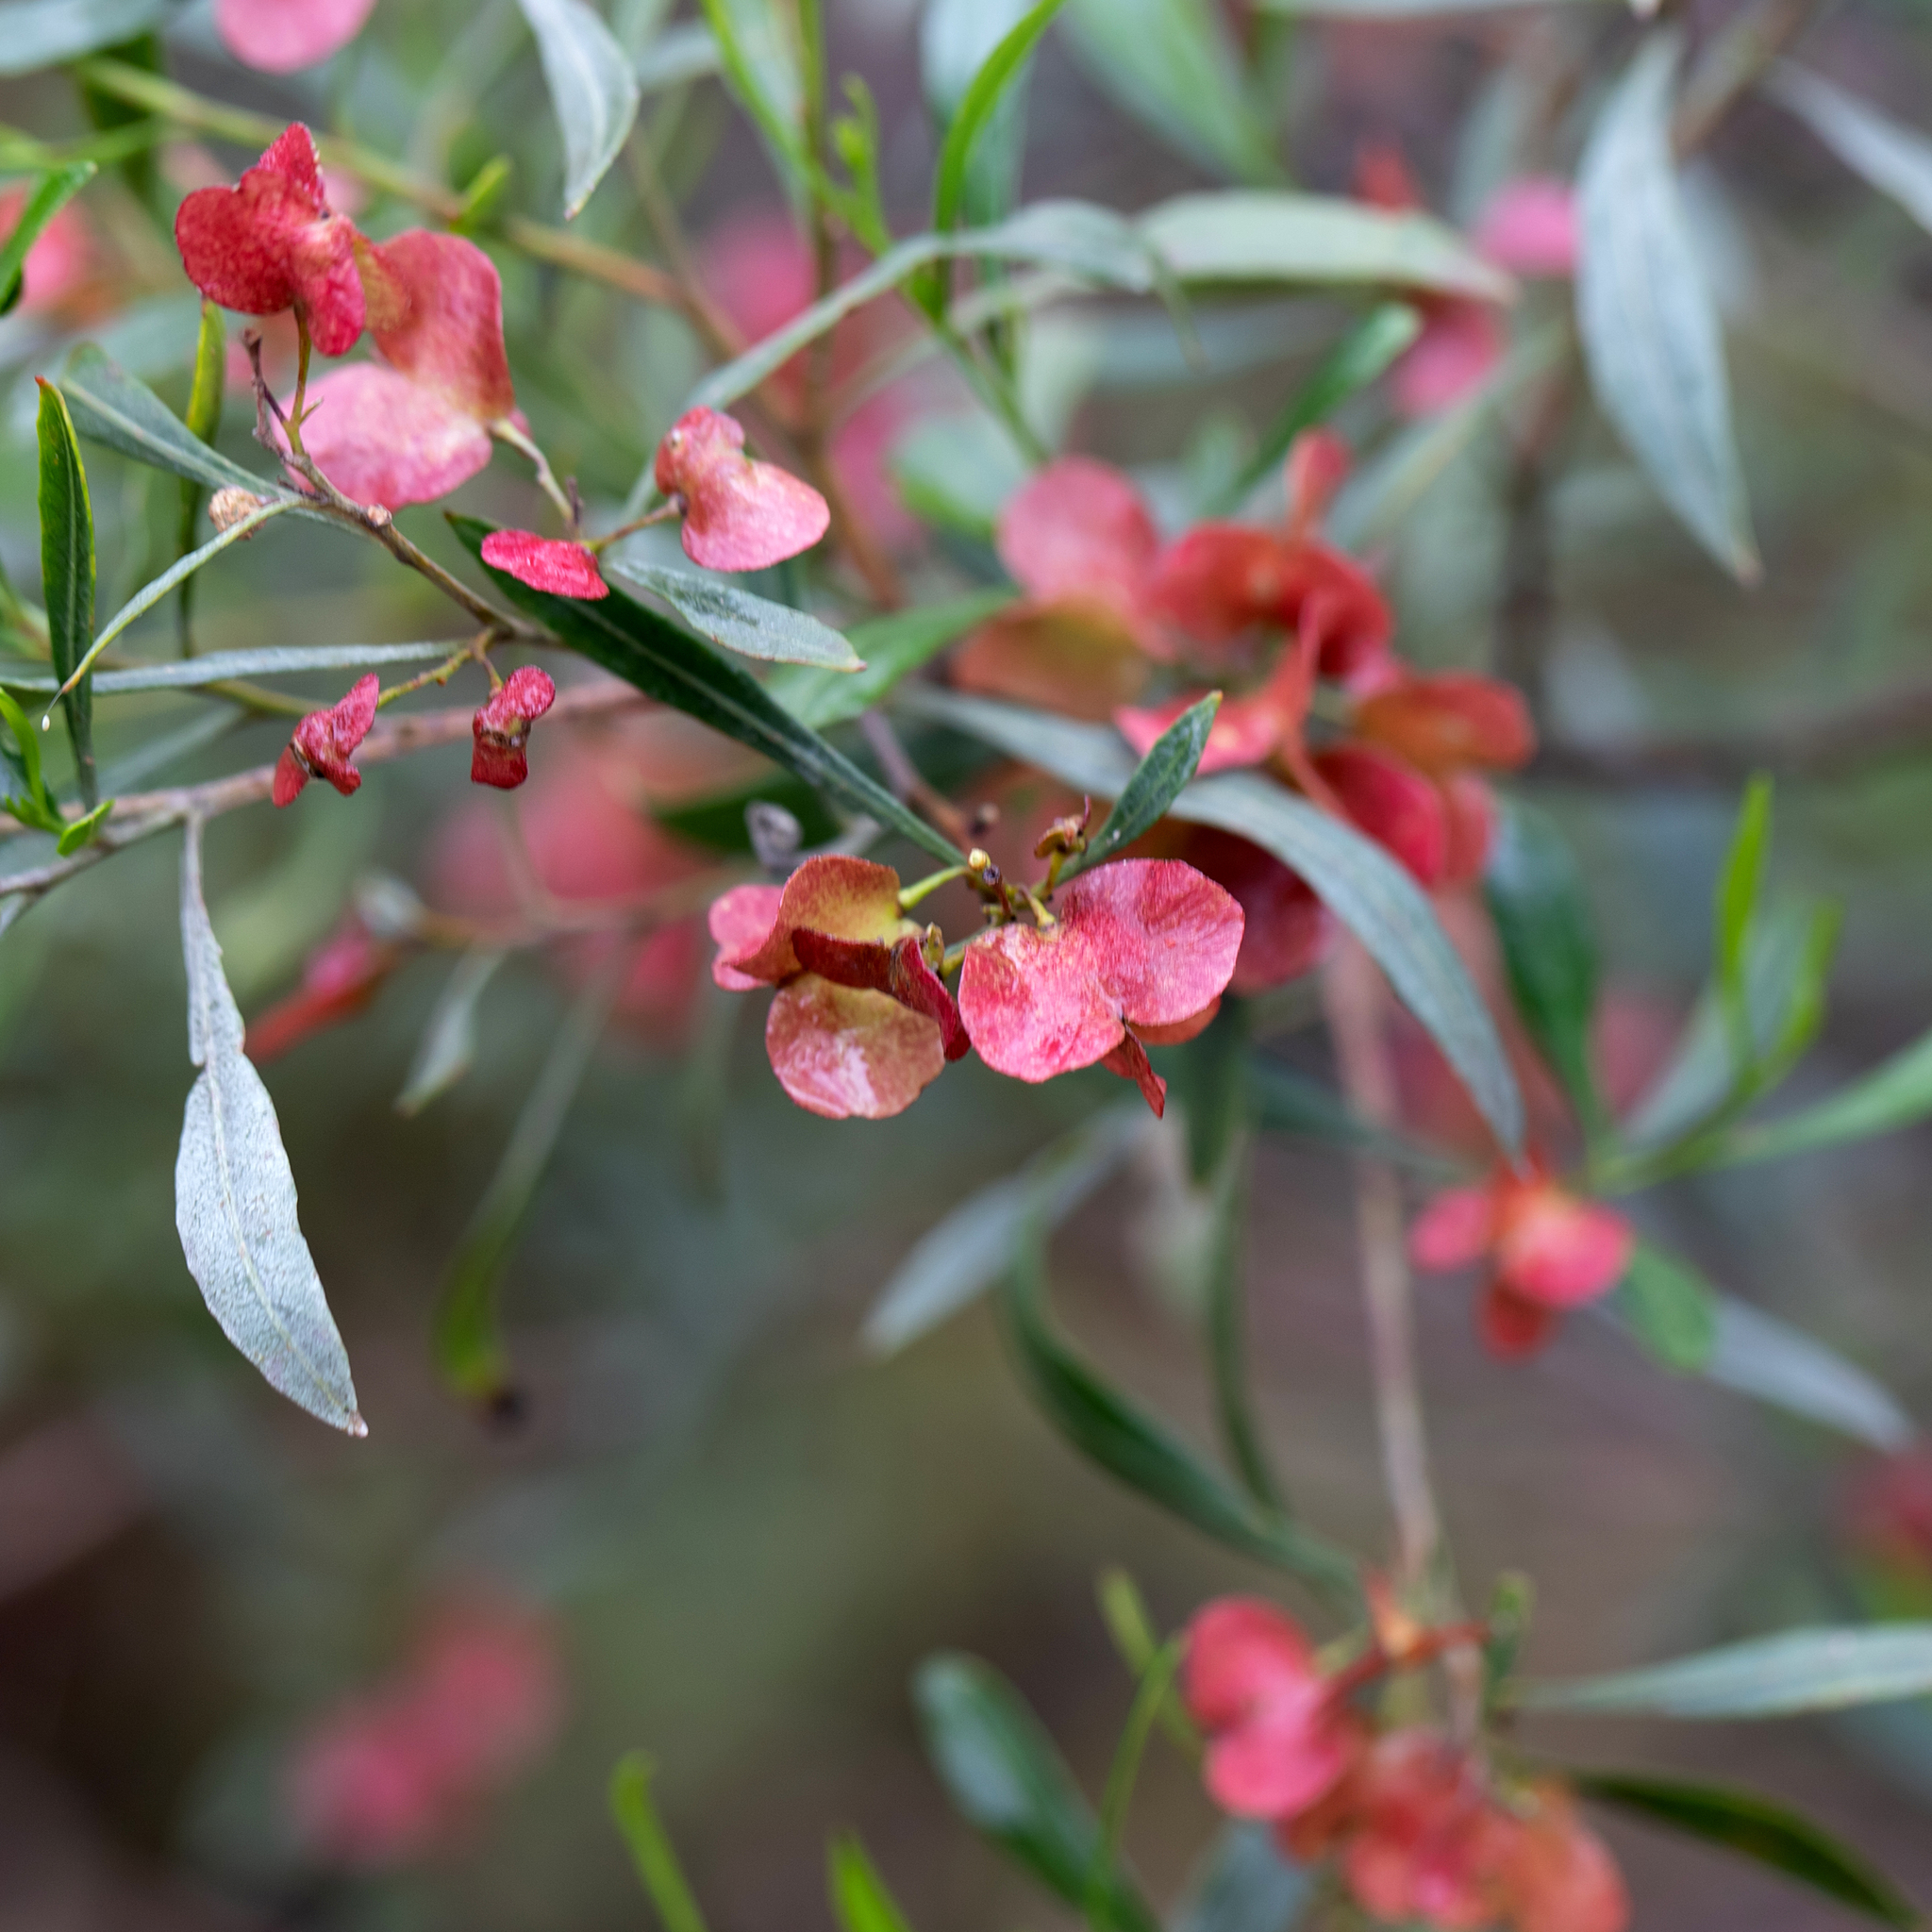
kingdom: Plantae
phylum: Tracheophyta
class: Magnoliopsida
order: Sapindales
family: Sapindaceae
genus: Dodonaea
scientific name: Dodonaea viscosa
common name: Hopbush
